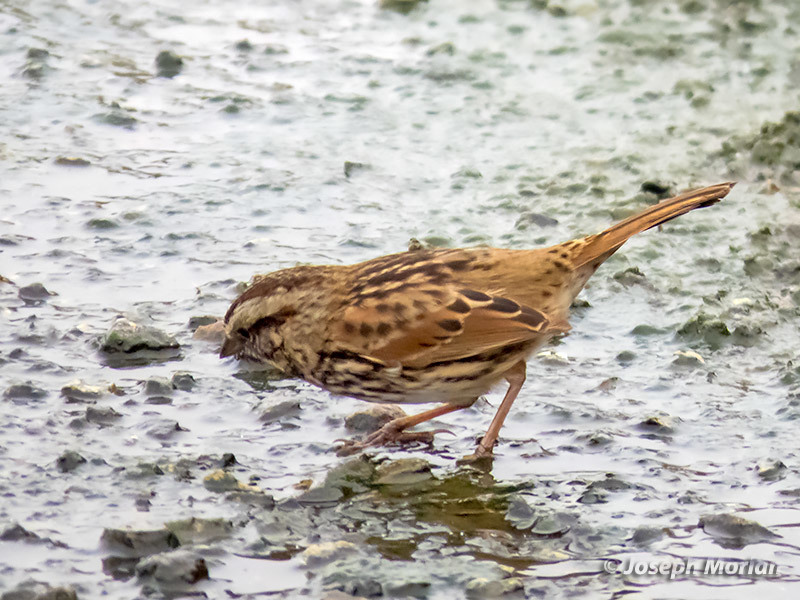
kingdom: Animalia
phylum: Chordata
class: Aves
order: Passeriformes
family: Passerellidae
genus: Melospiza
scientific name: Melospiza melodia
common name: Song sparrow
